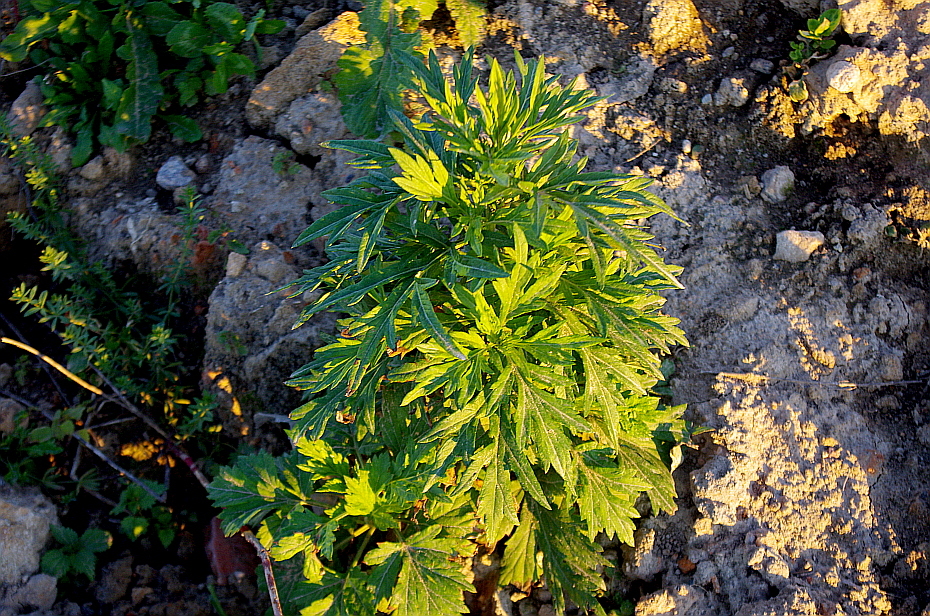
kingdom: Plantae
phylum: Tracheophyta
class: Magnoliopsida
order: Asterales
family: Asteraceae
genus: Artemisia
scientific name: Artemisia vulgaris
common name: Mugwort
